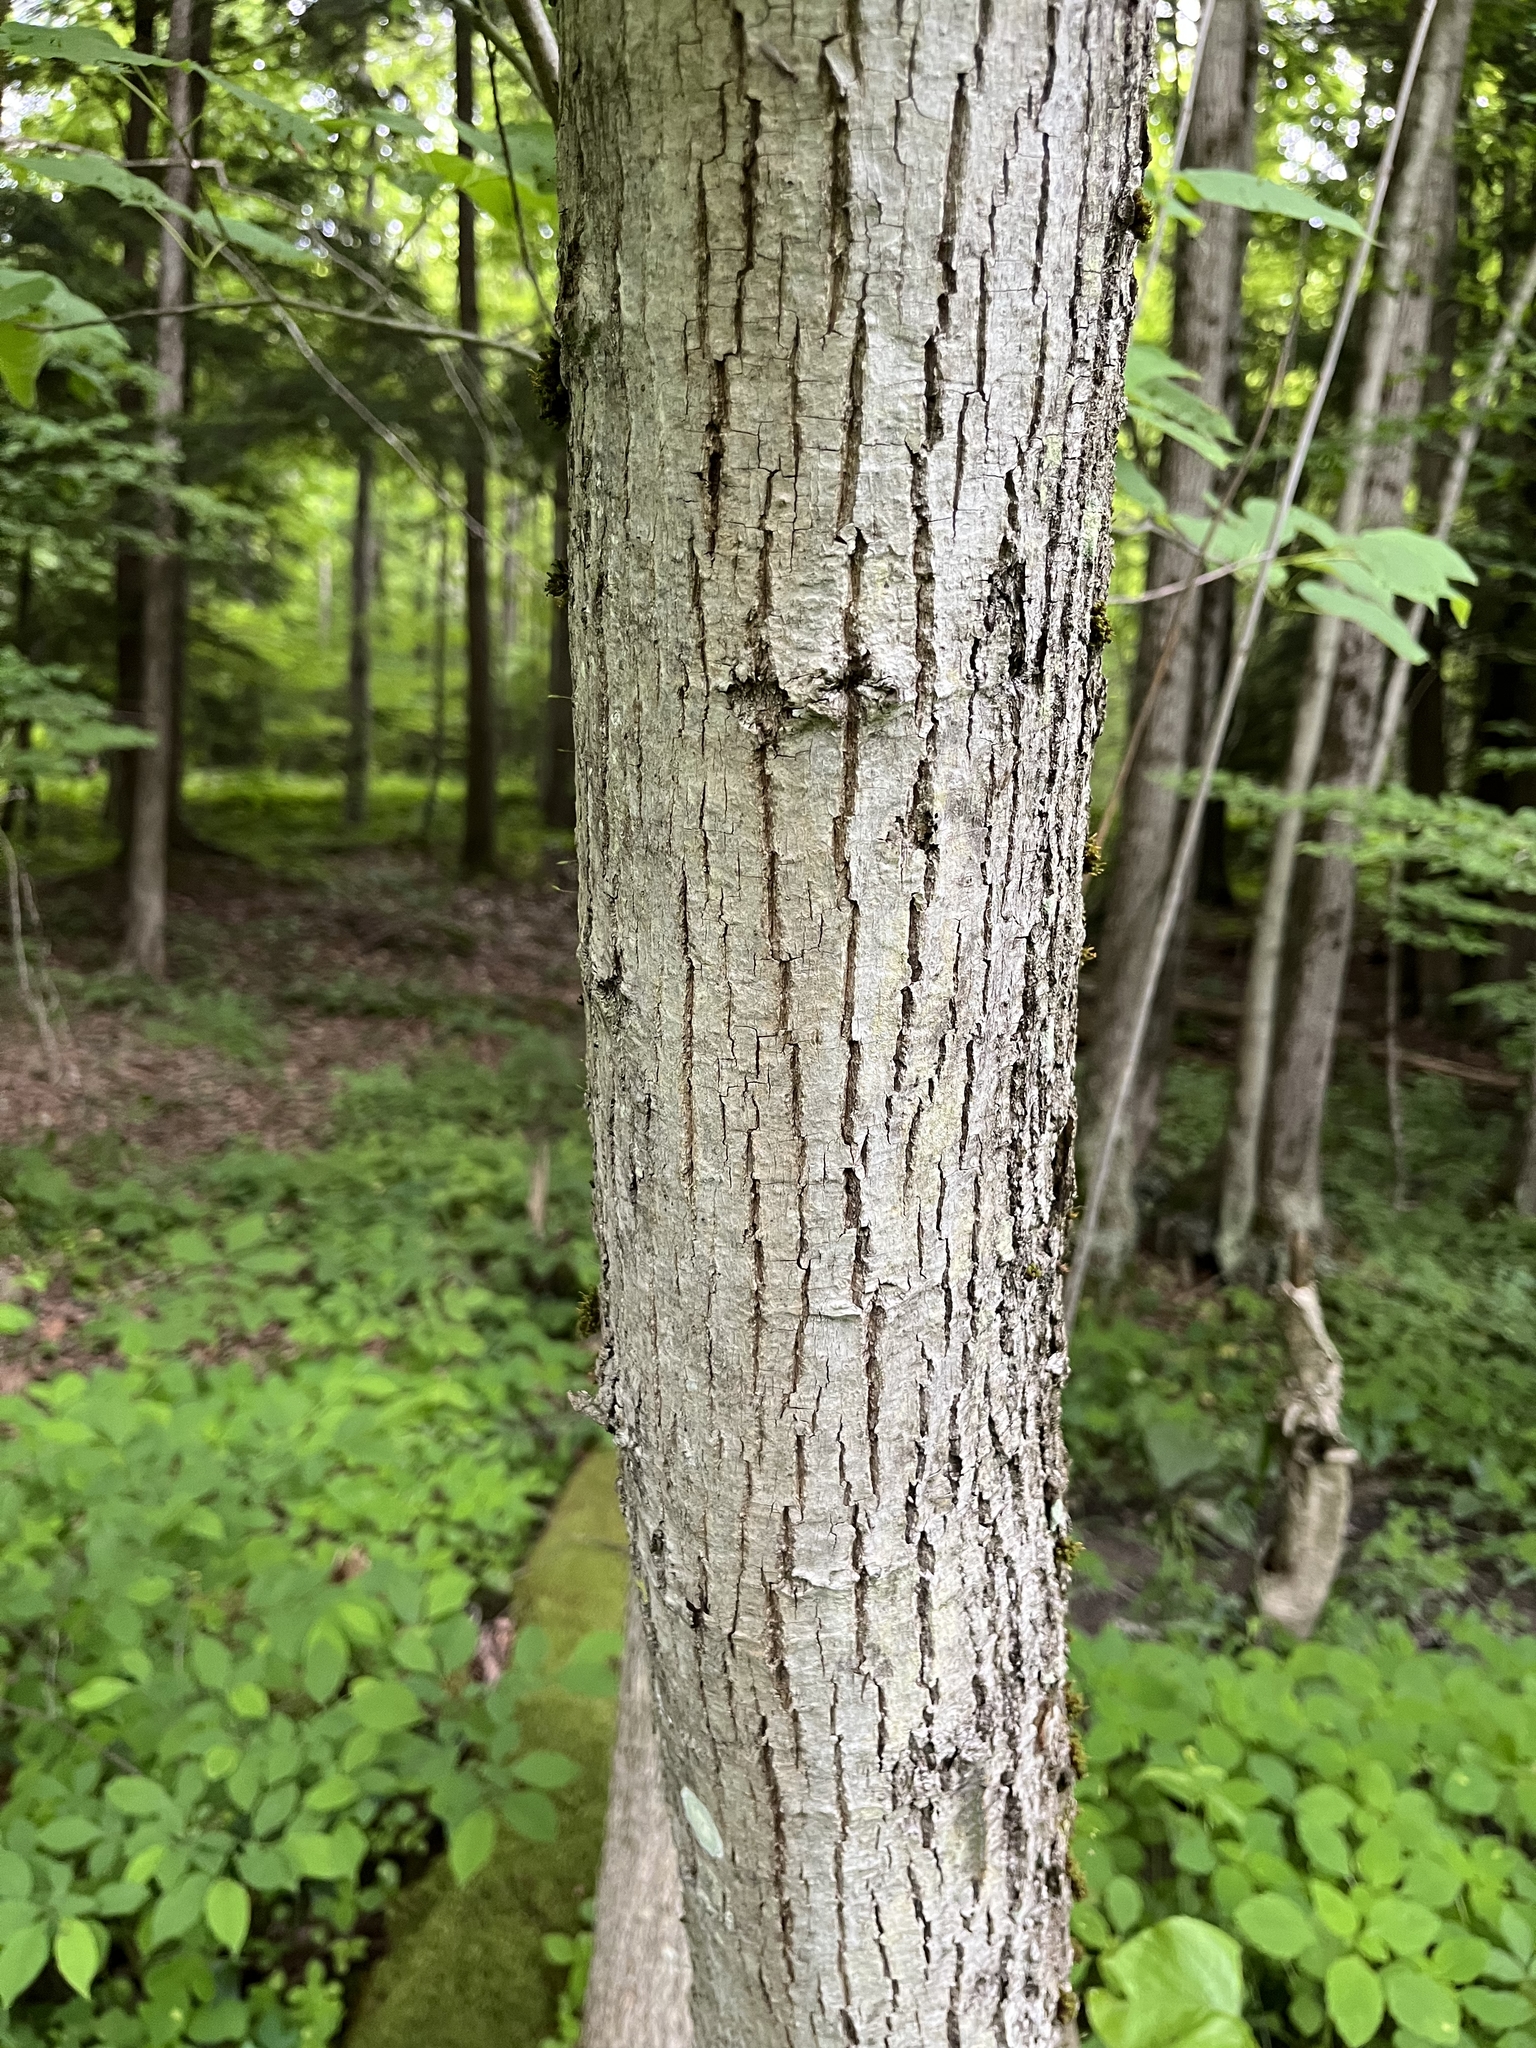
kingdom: Plantae
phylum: Tracheophyta
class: Magnoliopsida
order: Malvales
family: Malvaceae
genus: Tilia
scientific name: Tilia americana
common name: Basswood
